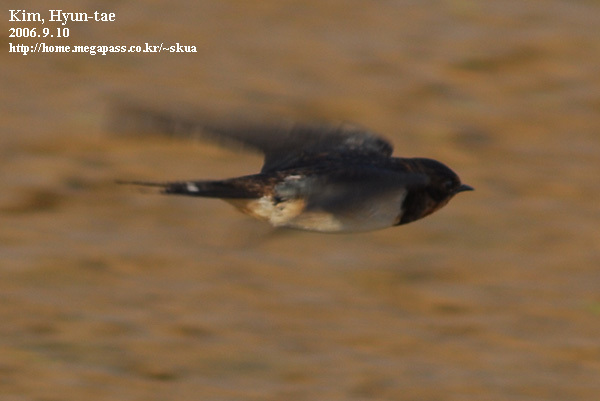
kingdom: Animalia
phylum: Chordata
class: Aves
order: Passeriformes
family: Hirundinidae
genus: Hirundo
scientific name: Hirundo rustica
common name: Barn swallow
